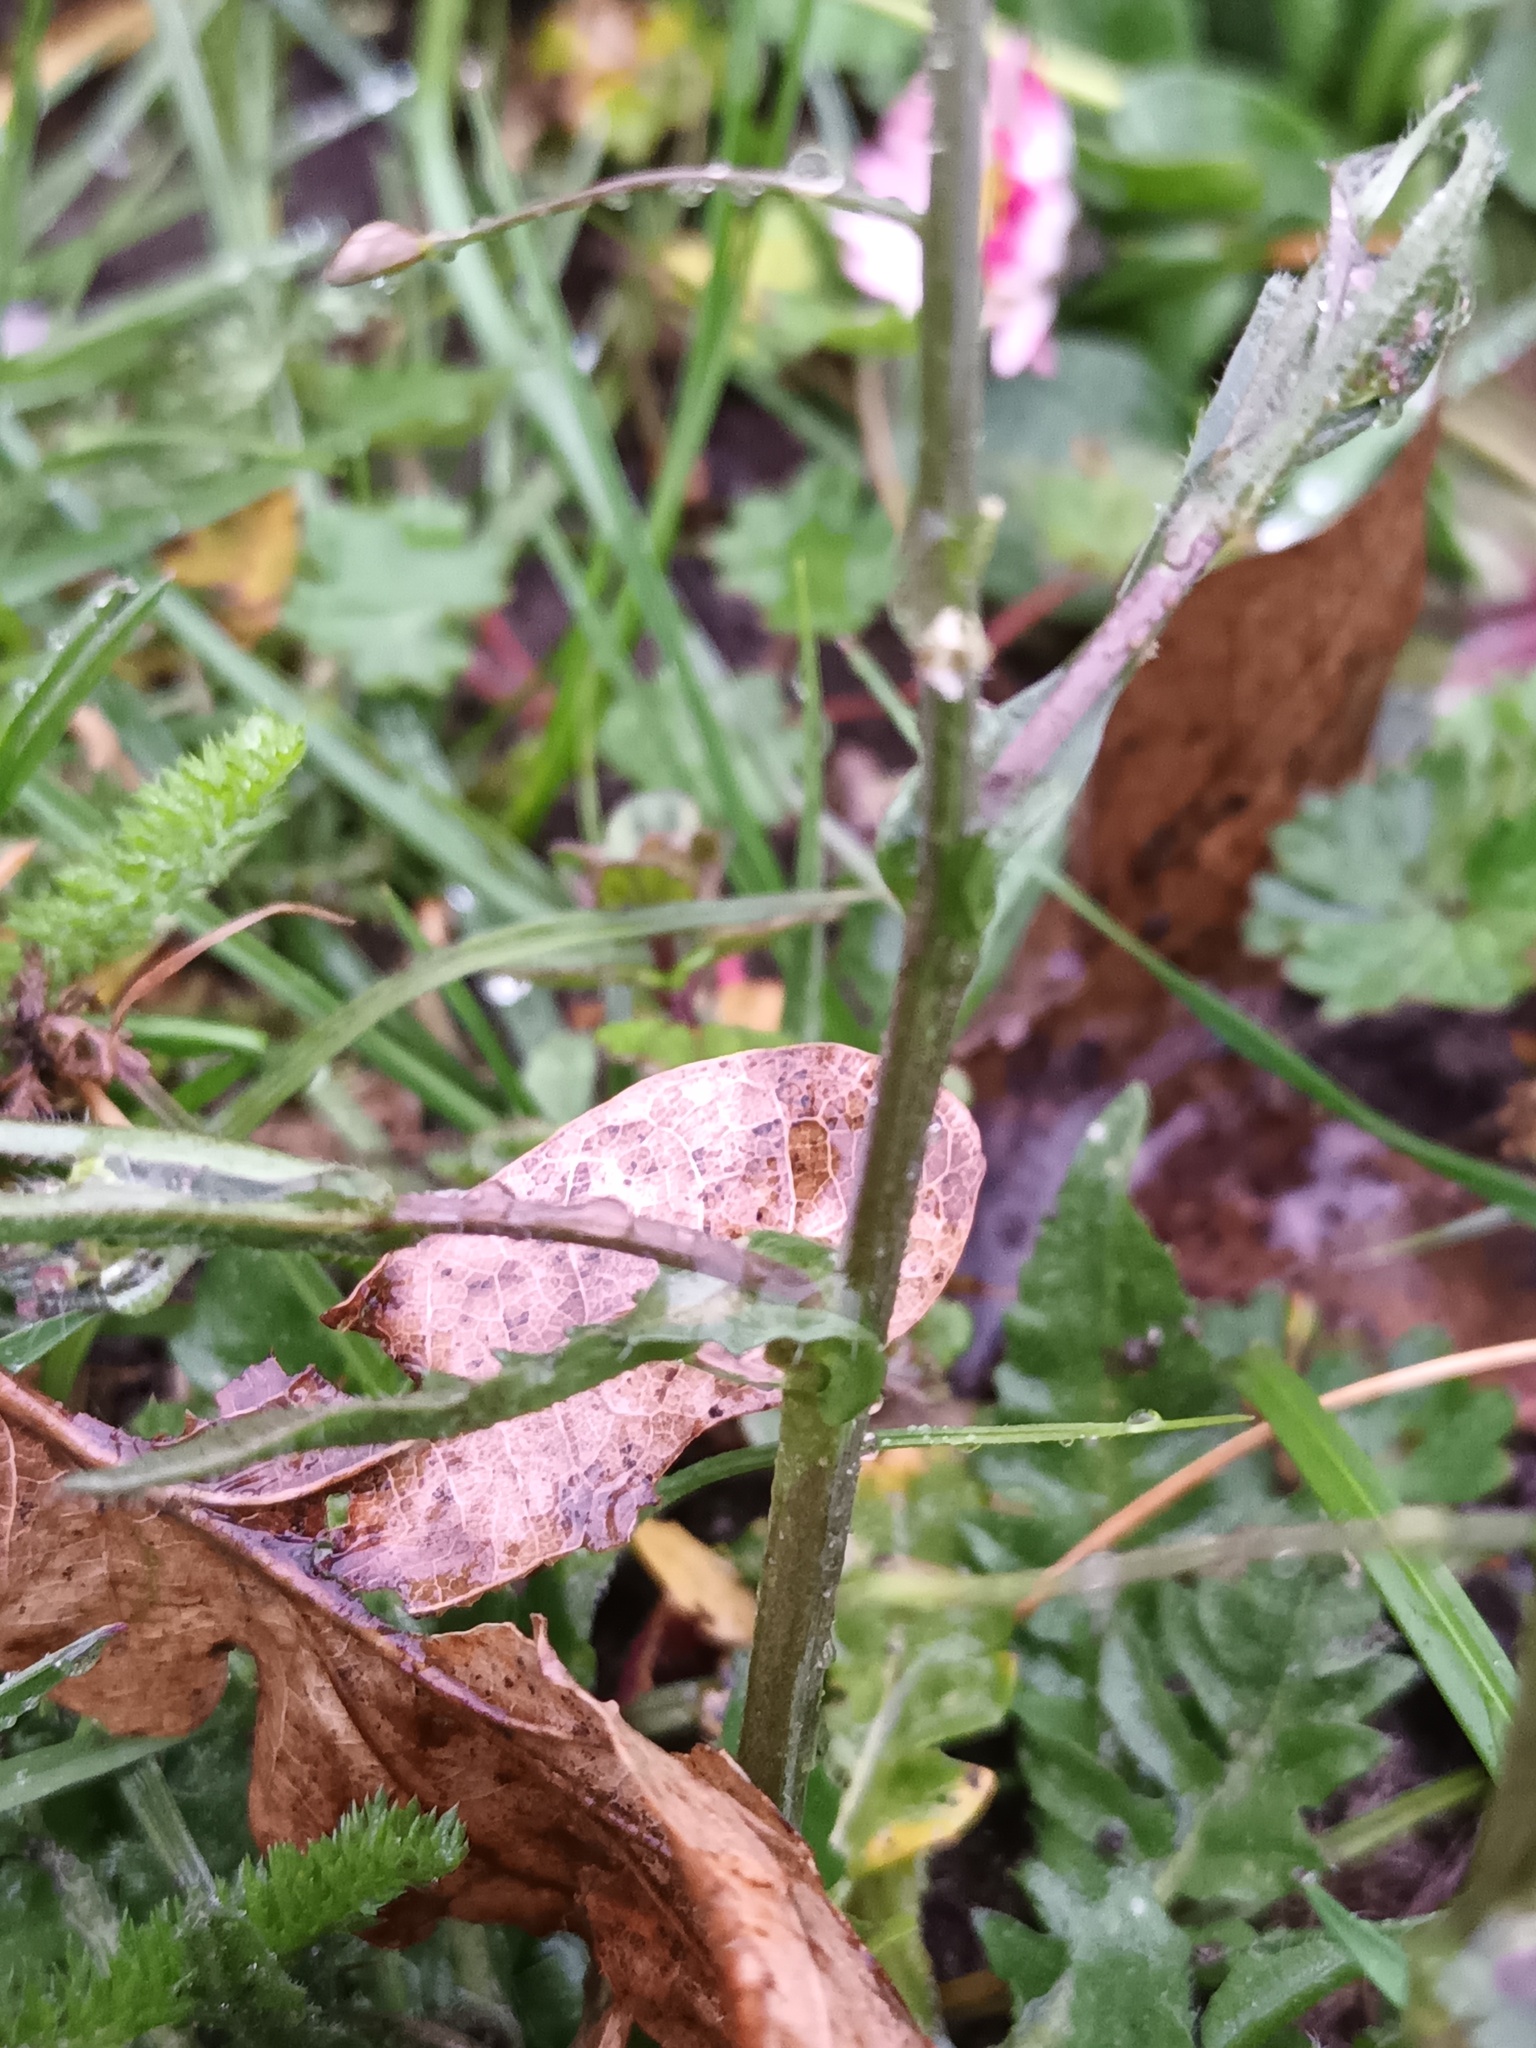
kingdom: Plantae
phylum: Tracheophyta
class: Magnoliopsida
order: Brassicales
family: Brassicaceae
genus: Capsella
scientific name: Capsella bursa-pastoris
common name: Shepherd's purse
